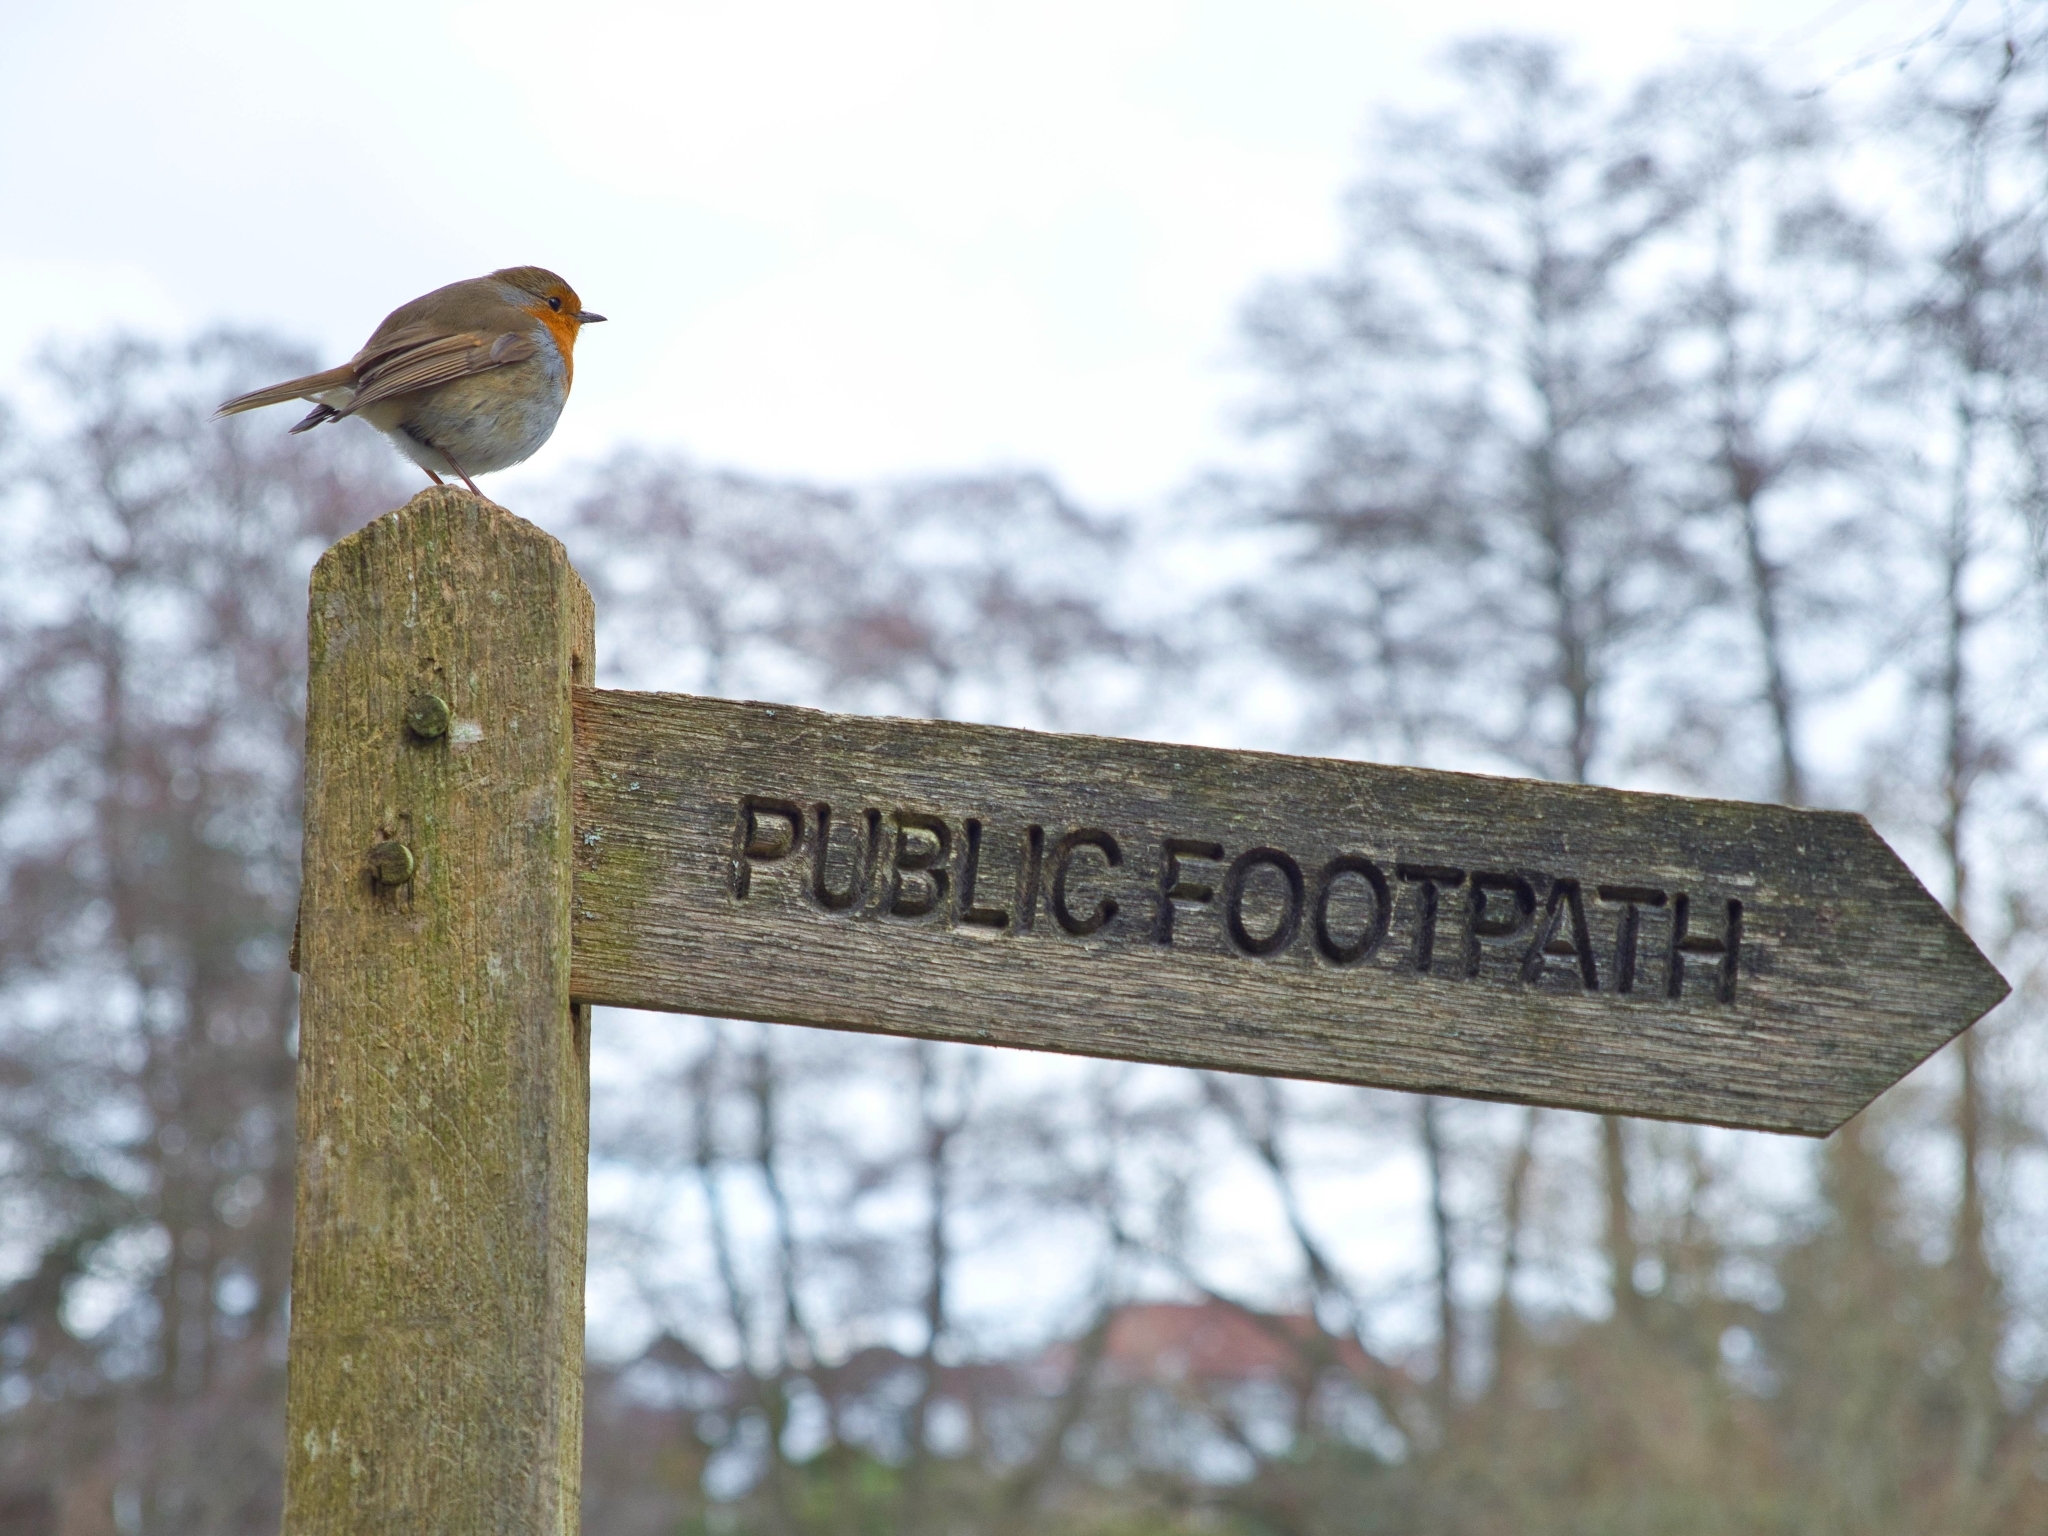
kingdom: Animalia
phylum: Chordata
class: Aves
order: Passeriformes
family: Muscicapidae
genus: Erithacus
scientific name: Erithacus rubecula
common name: European robin
